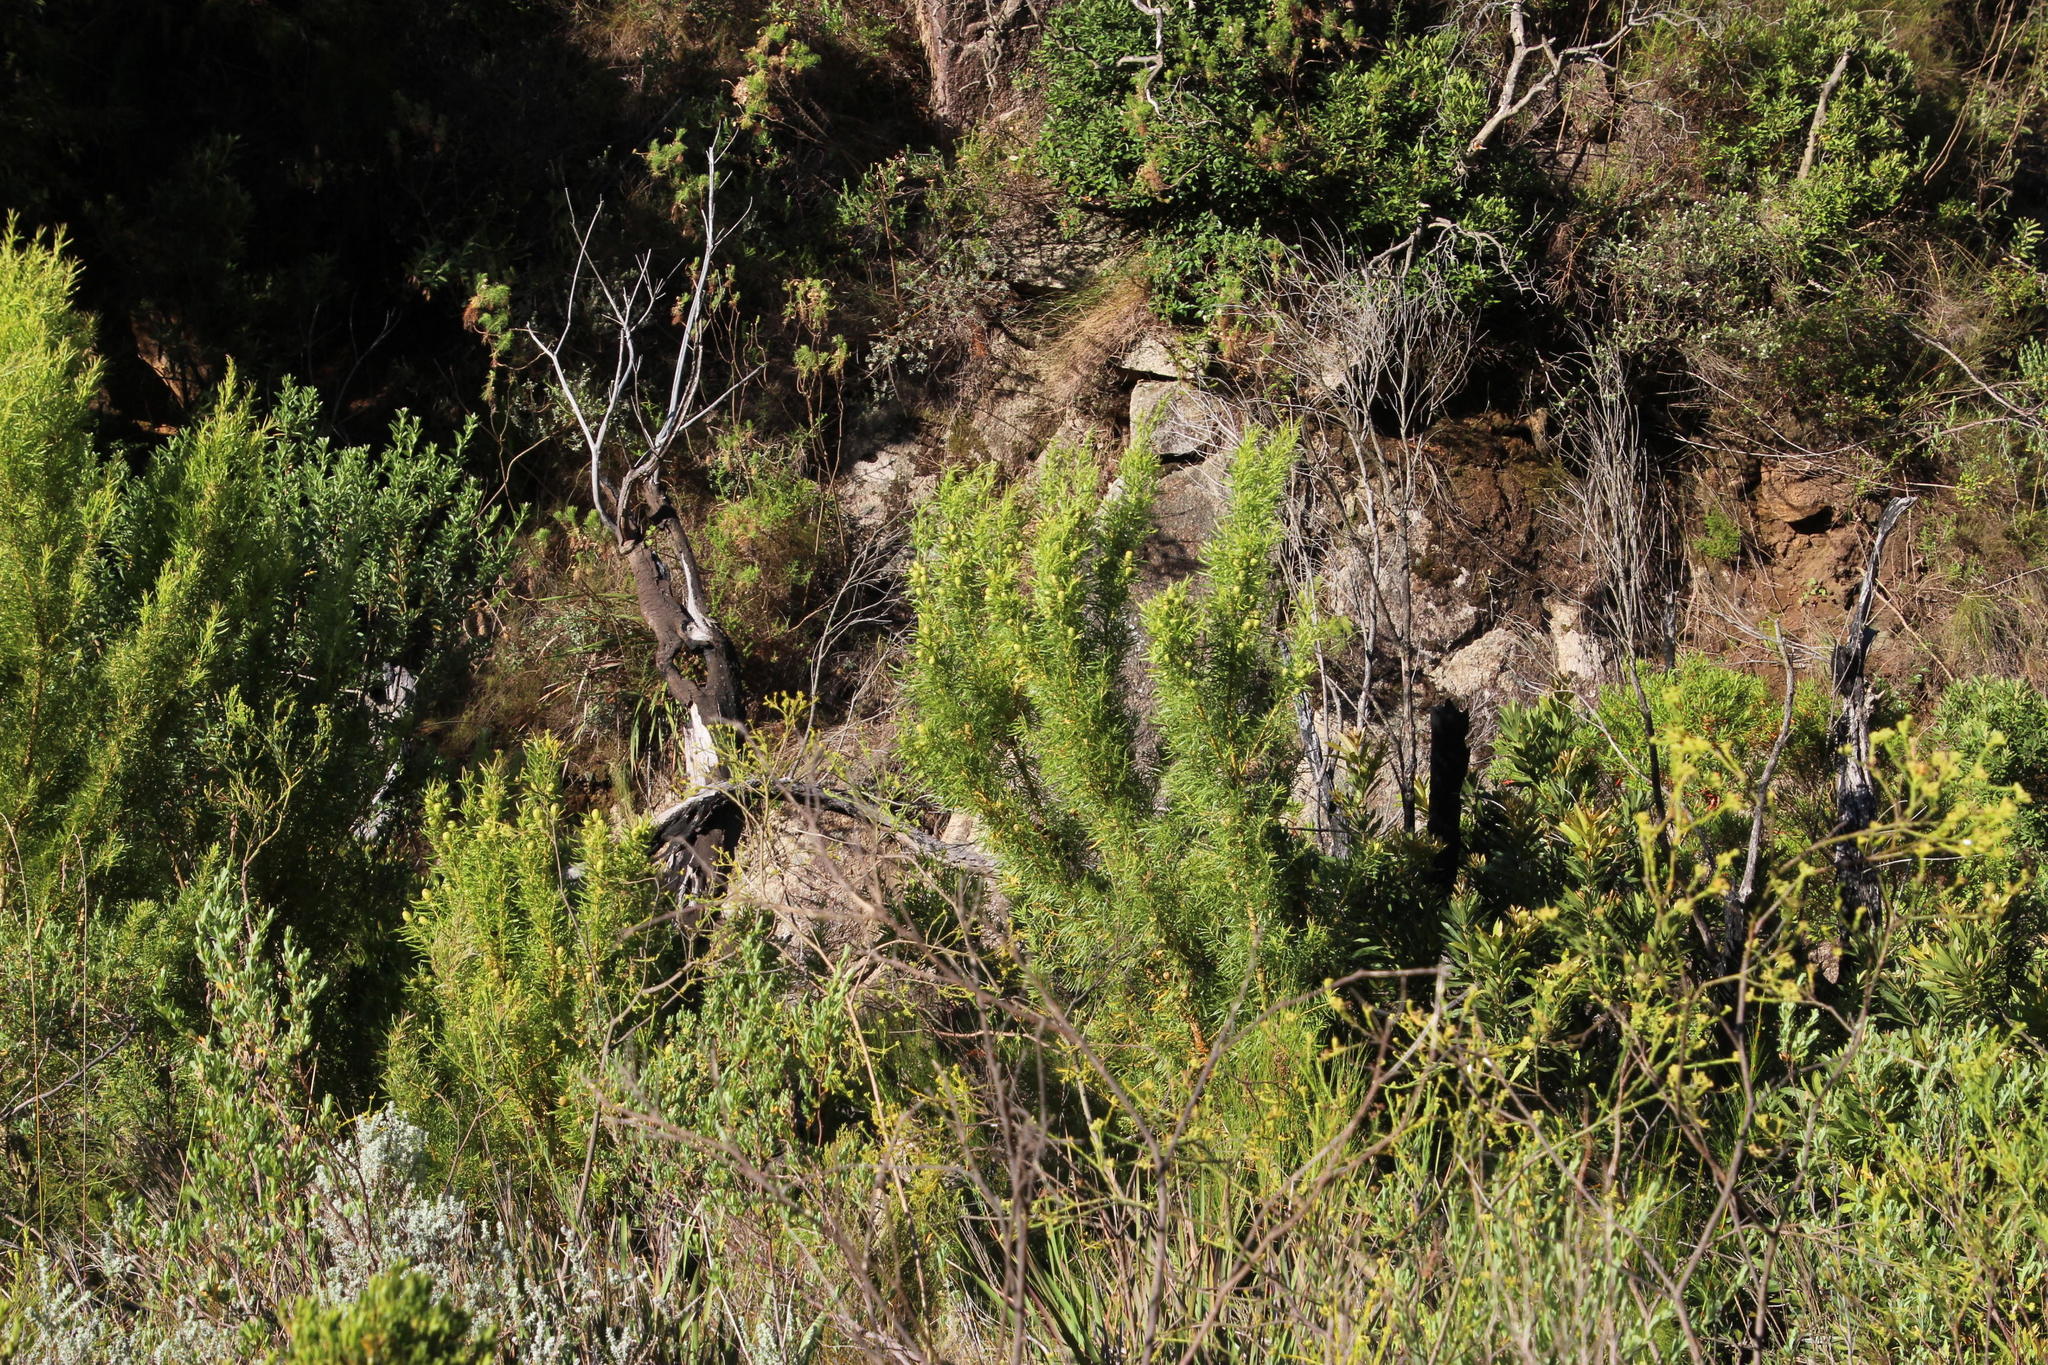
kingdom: Plantae
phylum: Tracheophyta
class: Magnoliopsida
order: Proteales
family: Proteaceae
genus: Leucadendron
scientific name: Leucadendron salicifolium
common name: Common stream conebush
